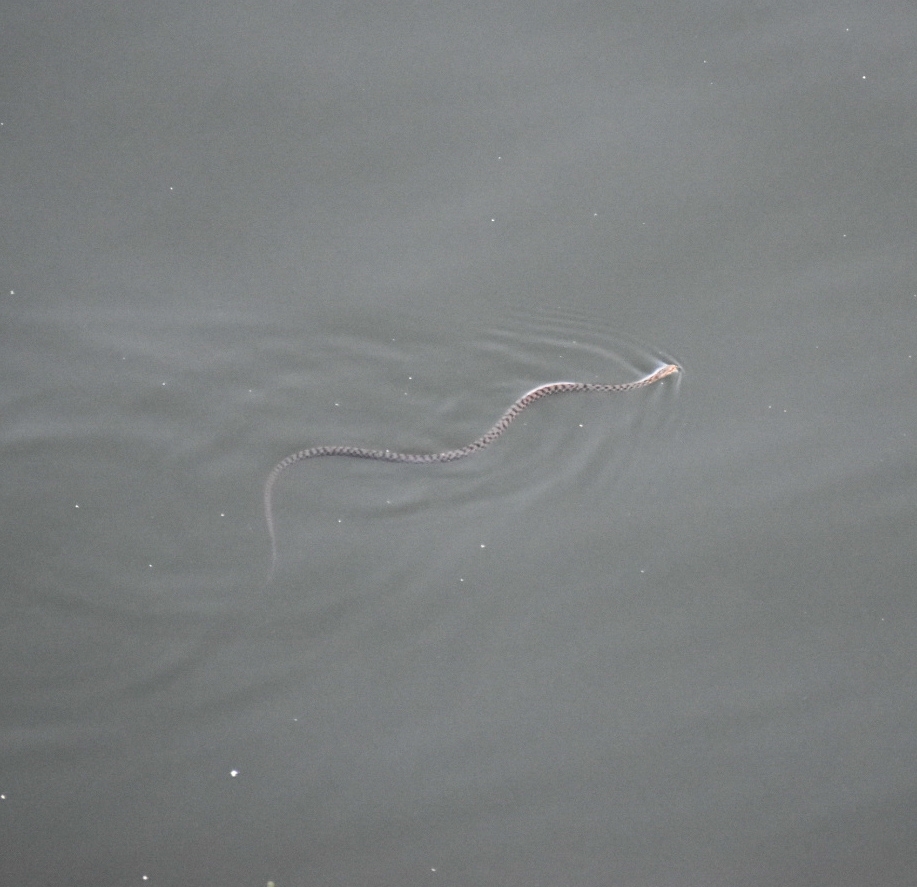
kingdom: Animalia
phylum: Chordata
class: Squamata
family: Colubridae
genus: Natrix
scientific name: Natrix tessellata
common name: Dice snake
